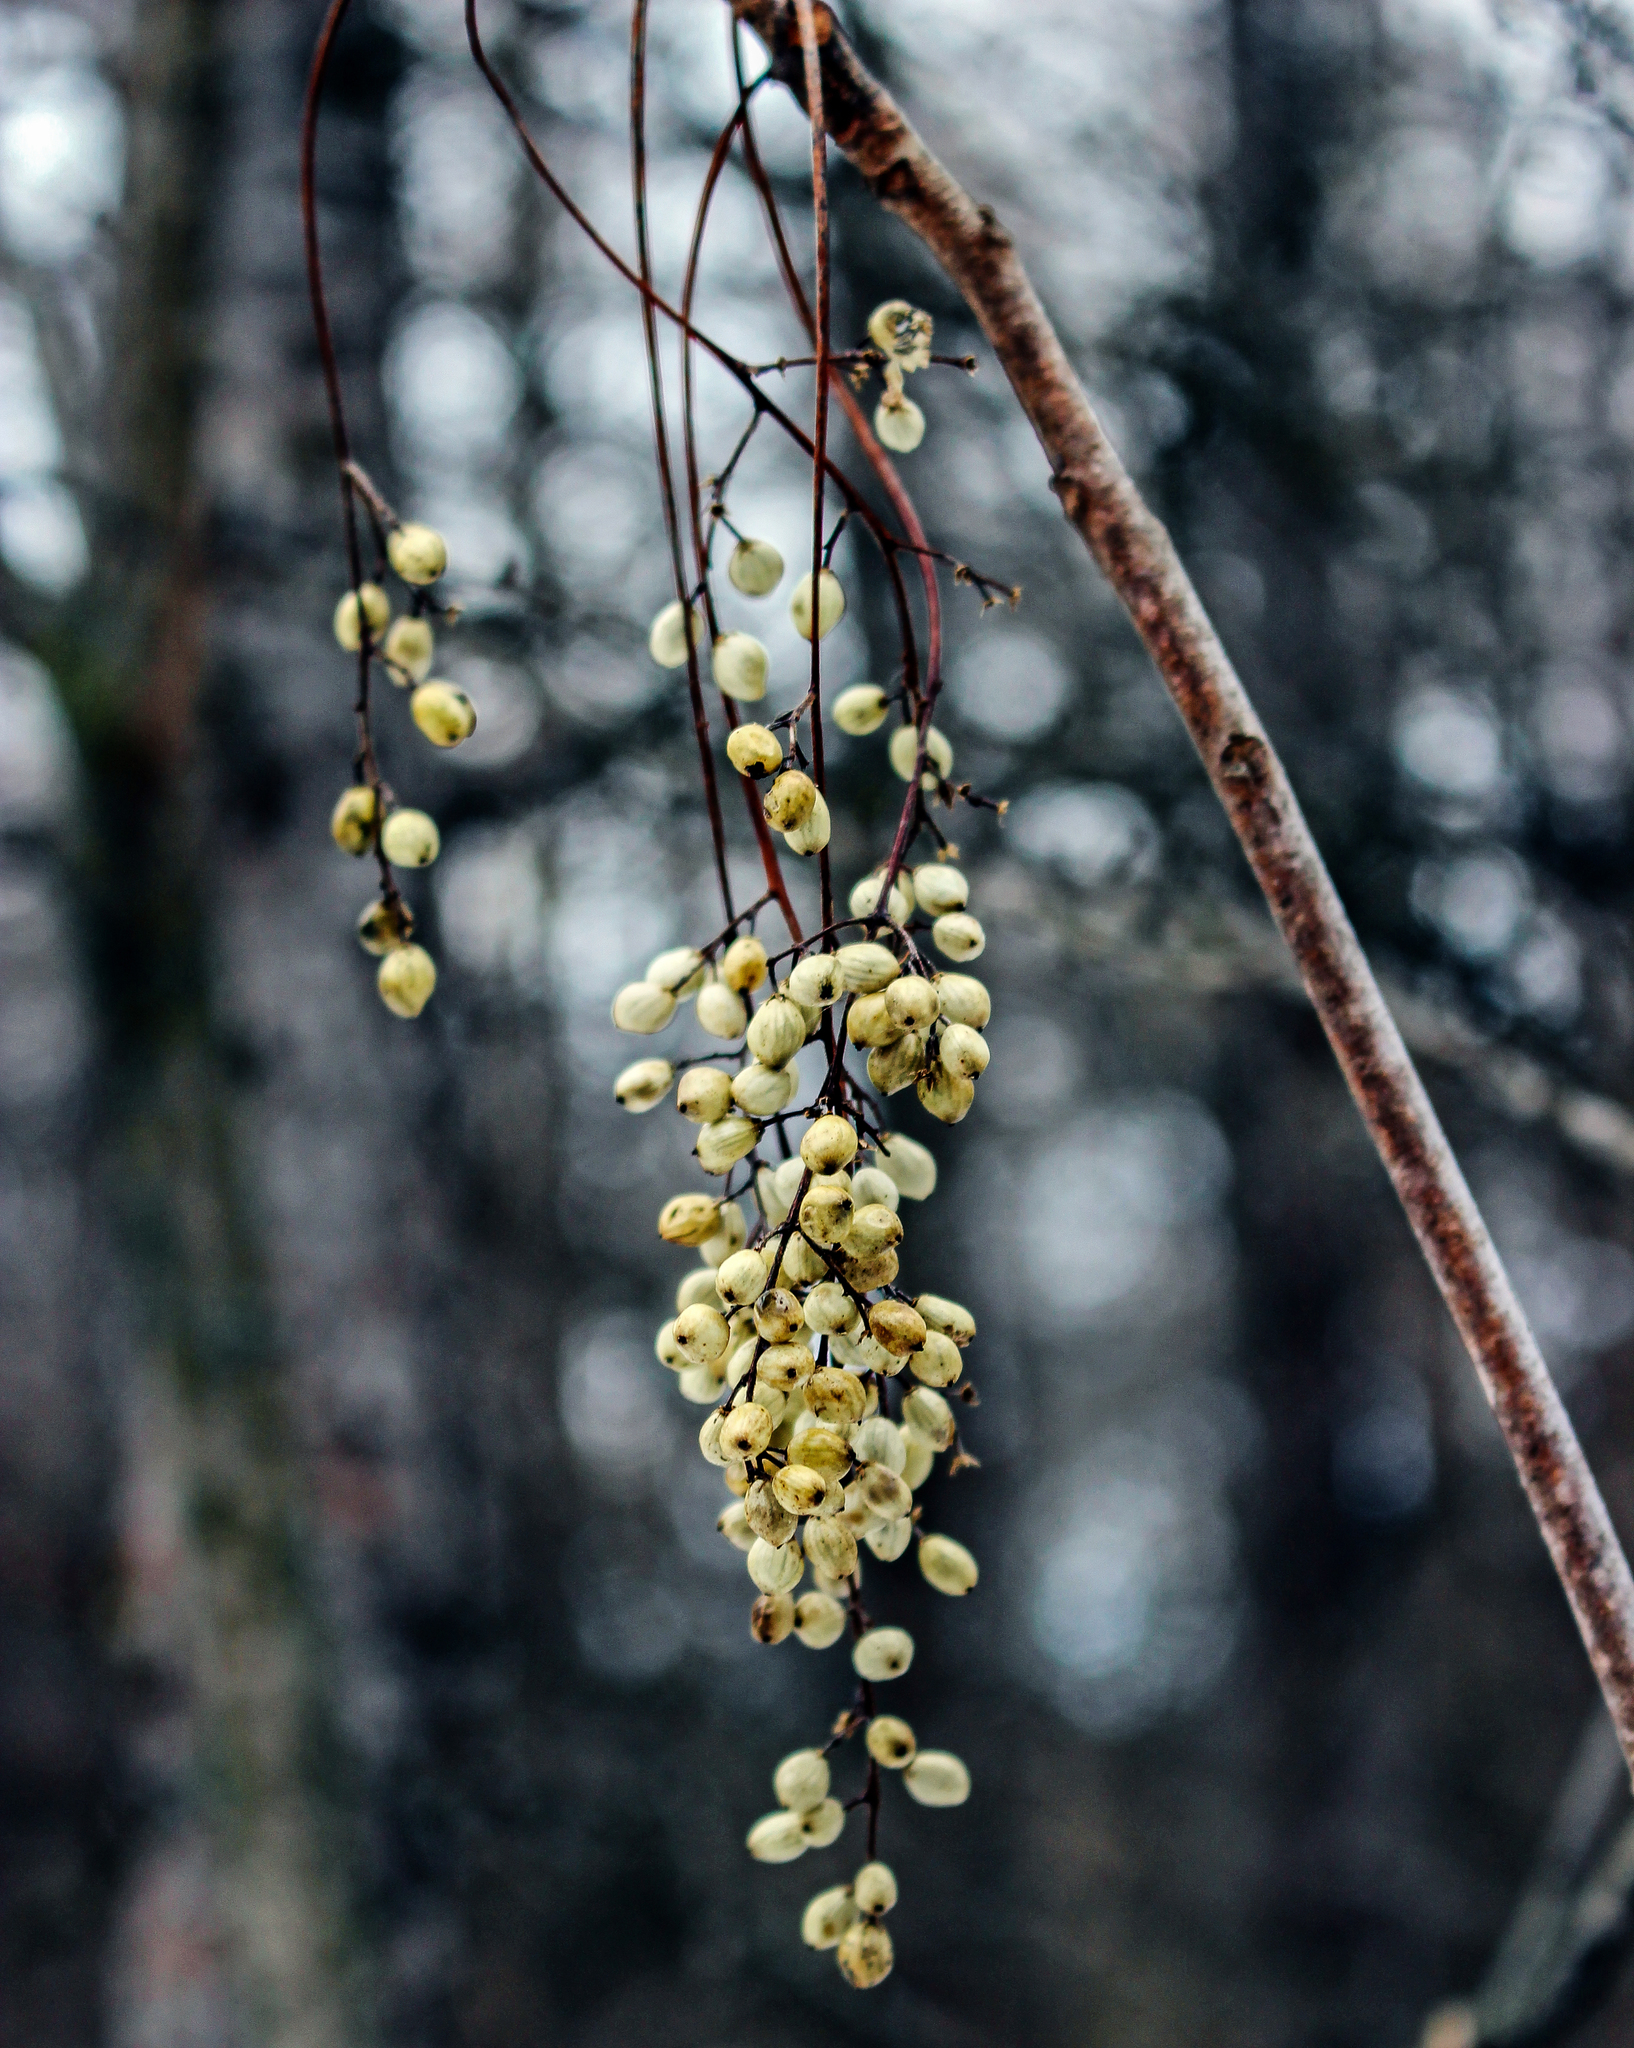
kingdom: Plantae
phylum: Tracheophyta
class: Magnoliopsida
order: Sapindales
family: Anacardiaceae
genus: Toxicodendron
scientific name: Toxicodendron vernix
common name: Poison sumac
